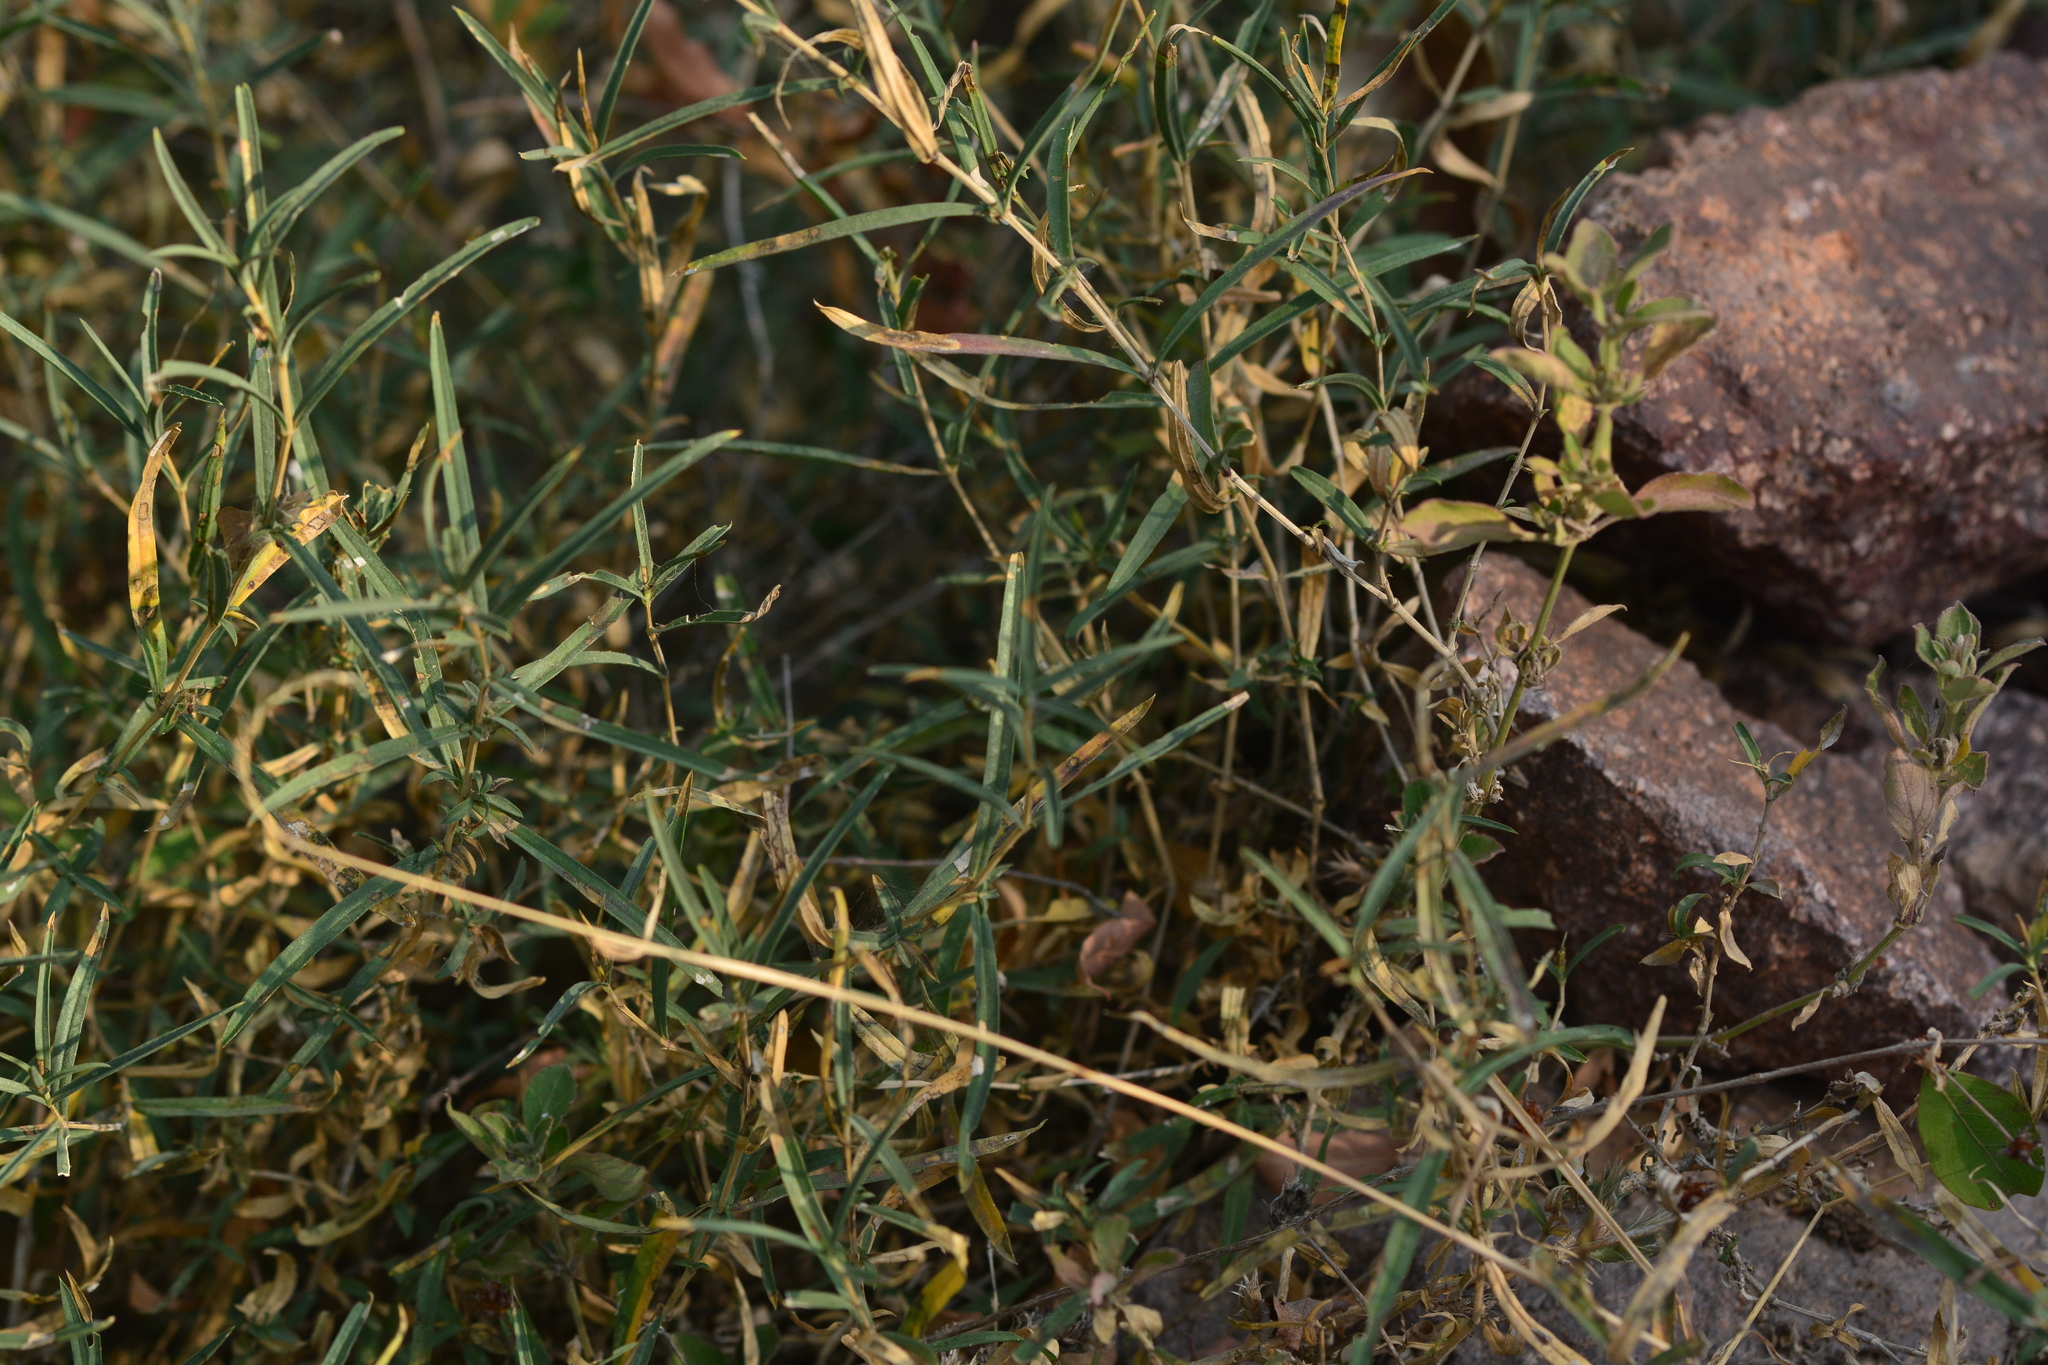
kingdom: Plantae
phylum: Tracheophyta
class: Magnoliopsida
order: Lamiales
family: Acanthaceae
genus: Lepidagathis
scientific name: Lepidagathis trinervis
